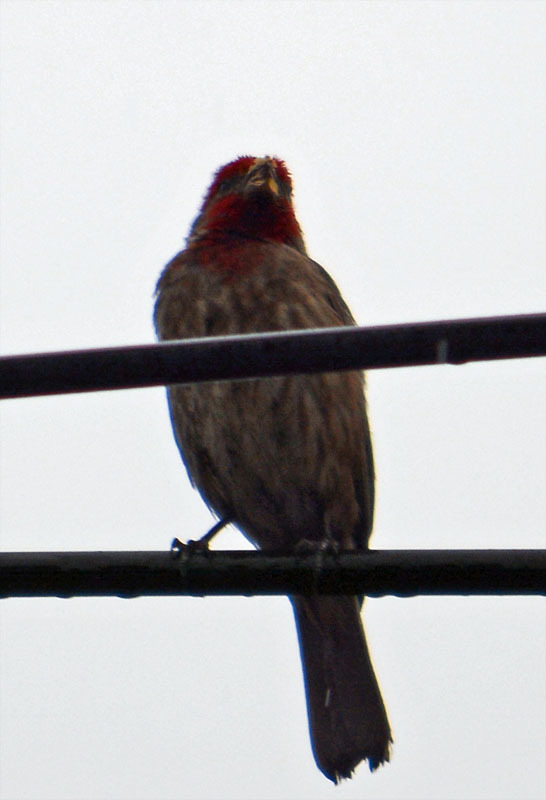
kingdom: Animalia
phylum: Chordata
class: Aves
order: Passeriformes
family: Fringillidae
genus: Haemorhous
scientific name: Haemorhous mexicanus
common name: House finch
